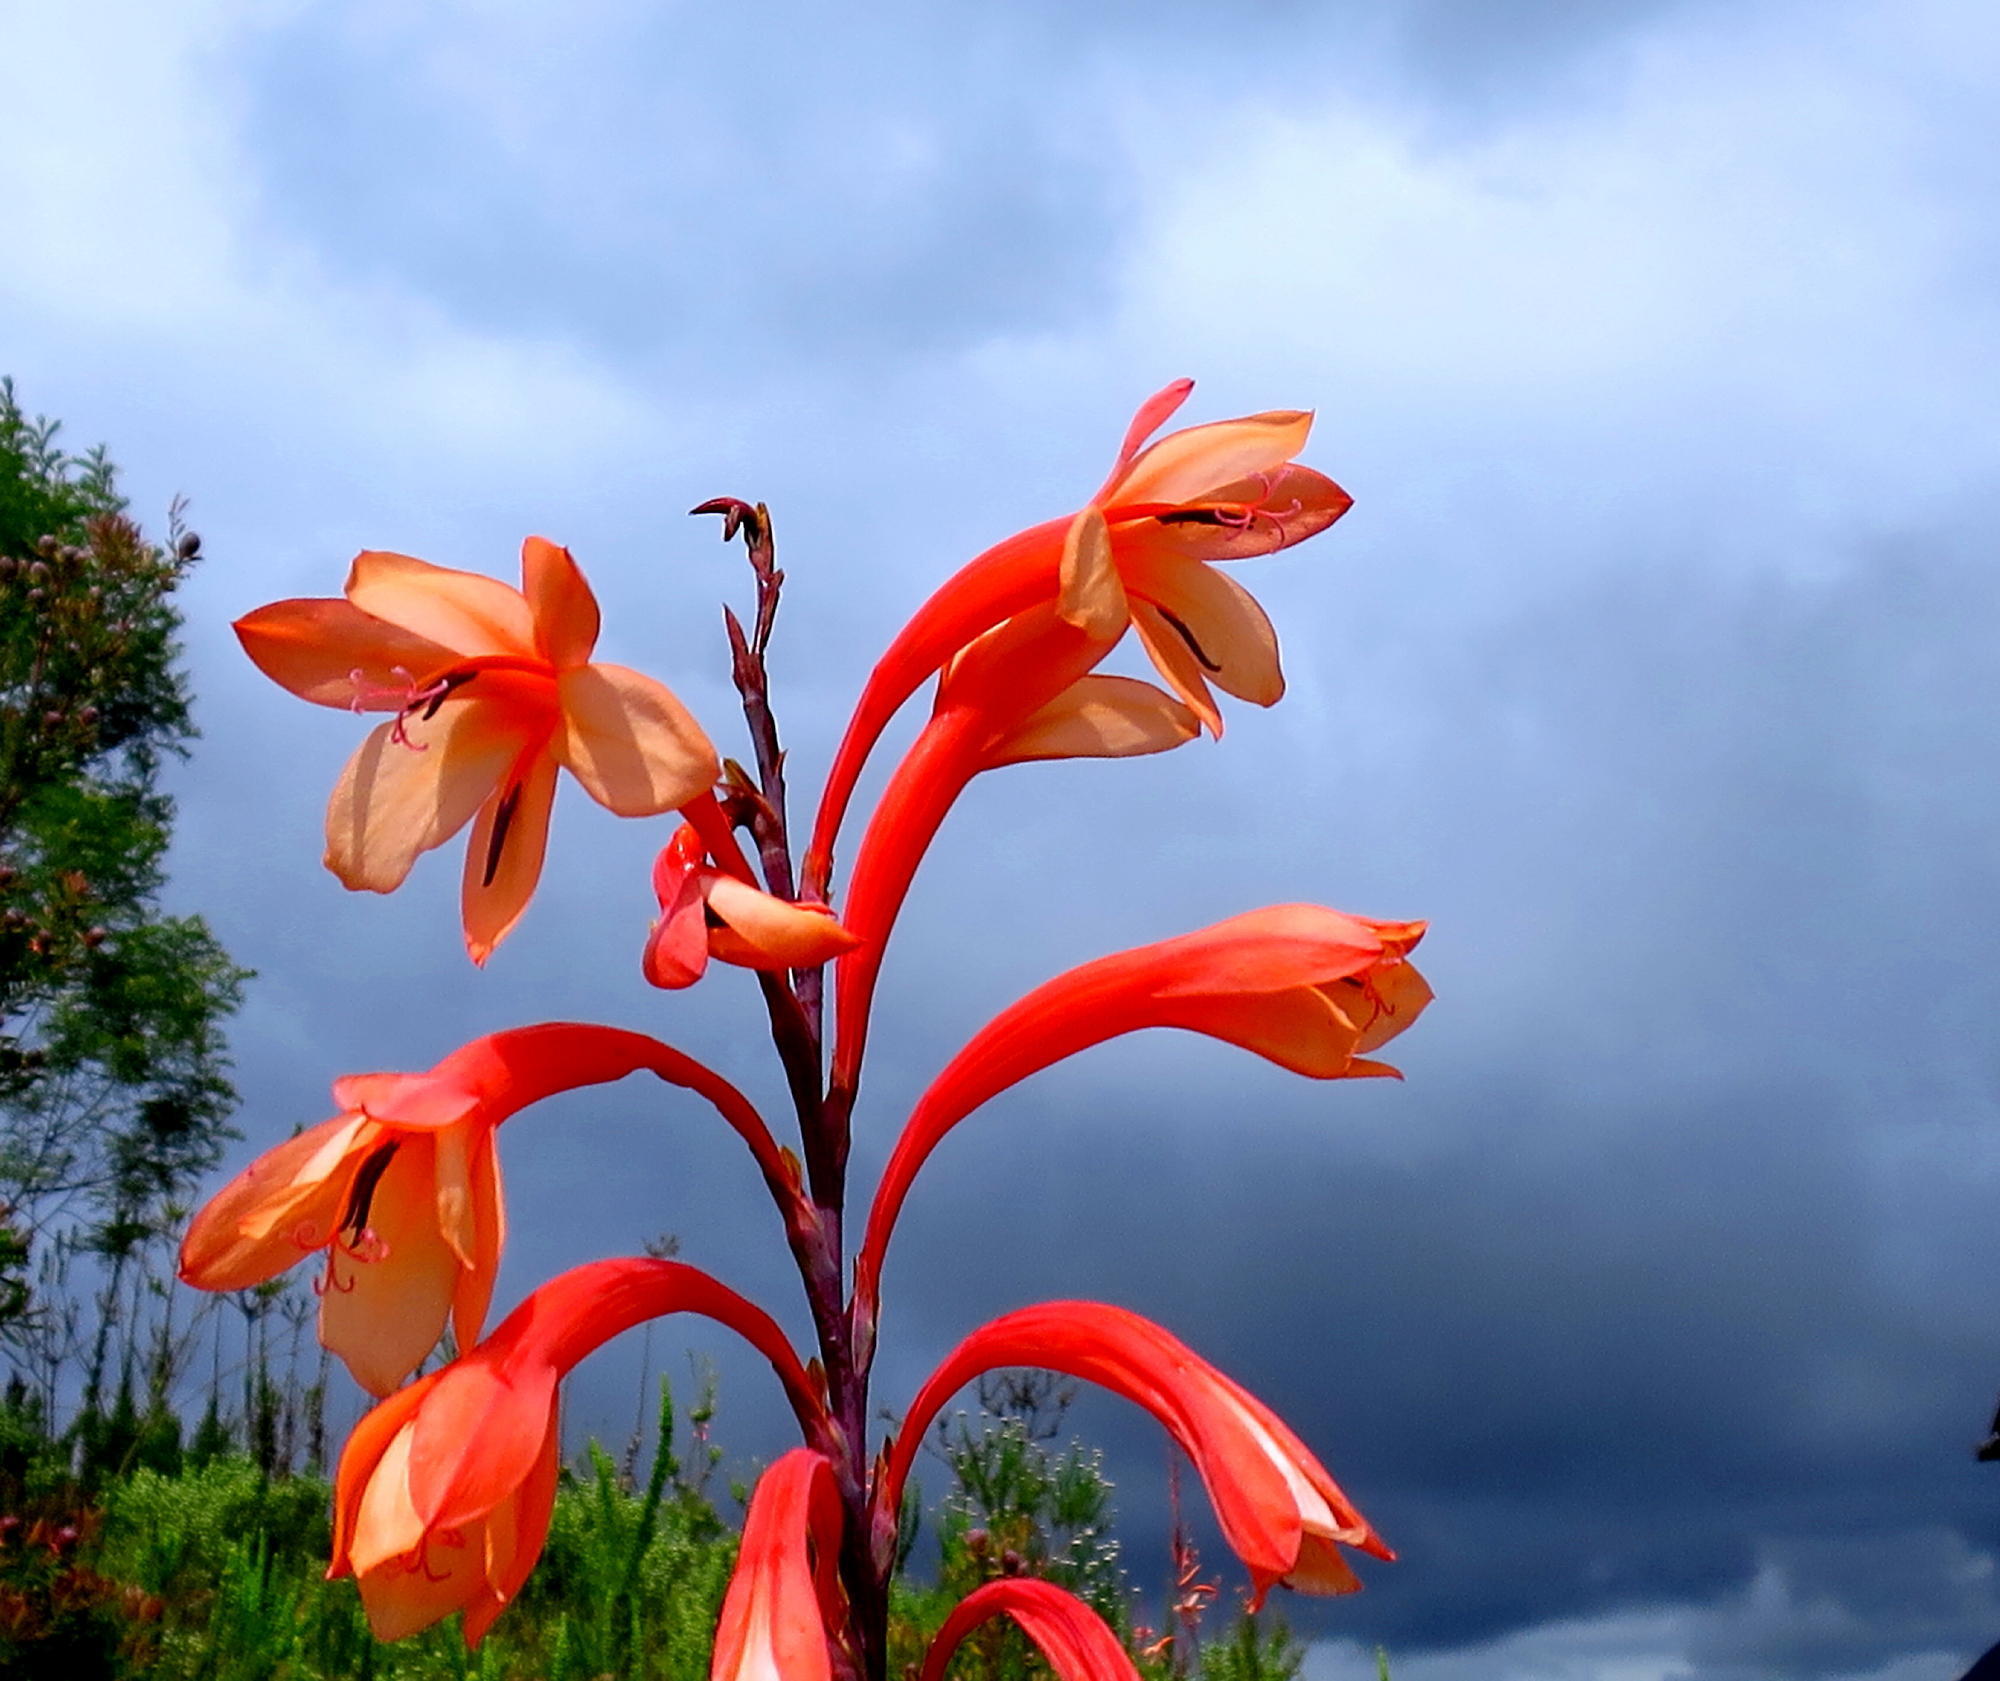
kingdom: Plantae
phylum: Tracheophyta
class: Liliopsida
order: Asparagales
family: Iridaceae
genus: Watsonia
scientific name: Watsonia fourcadei
